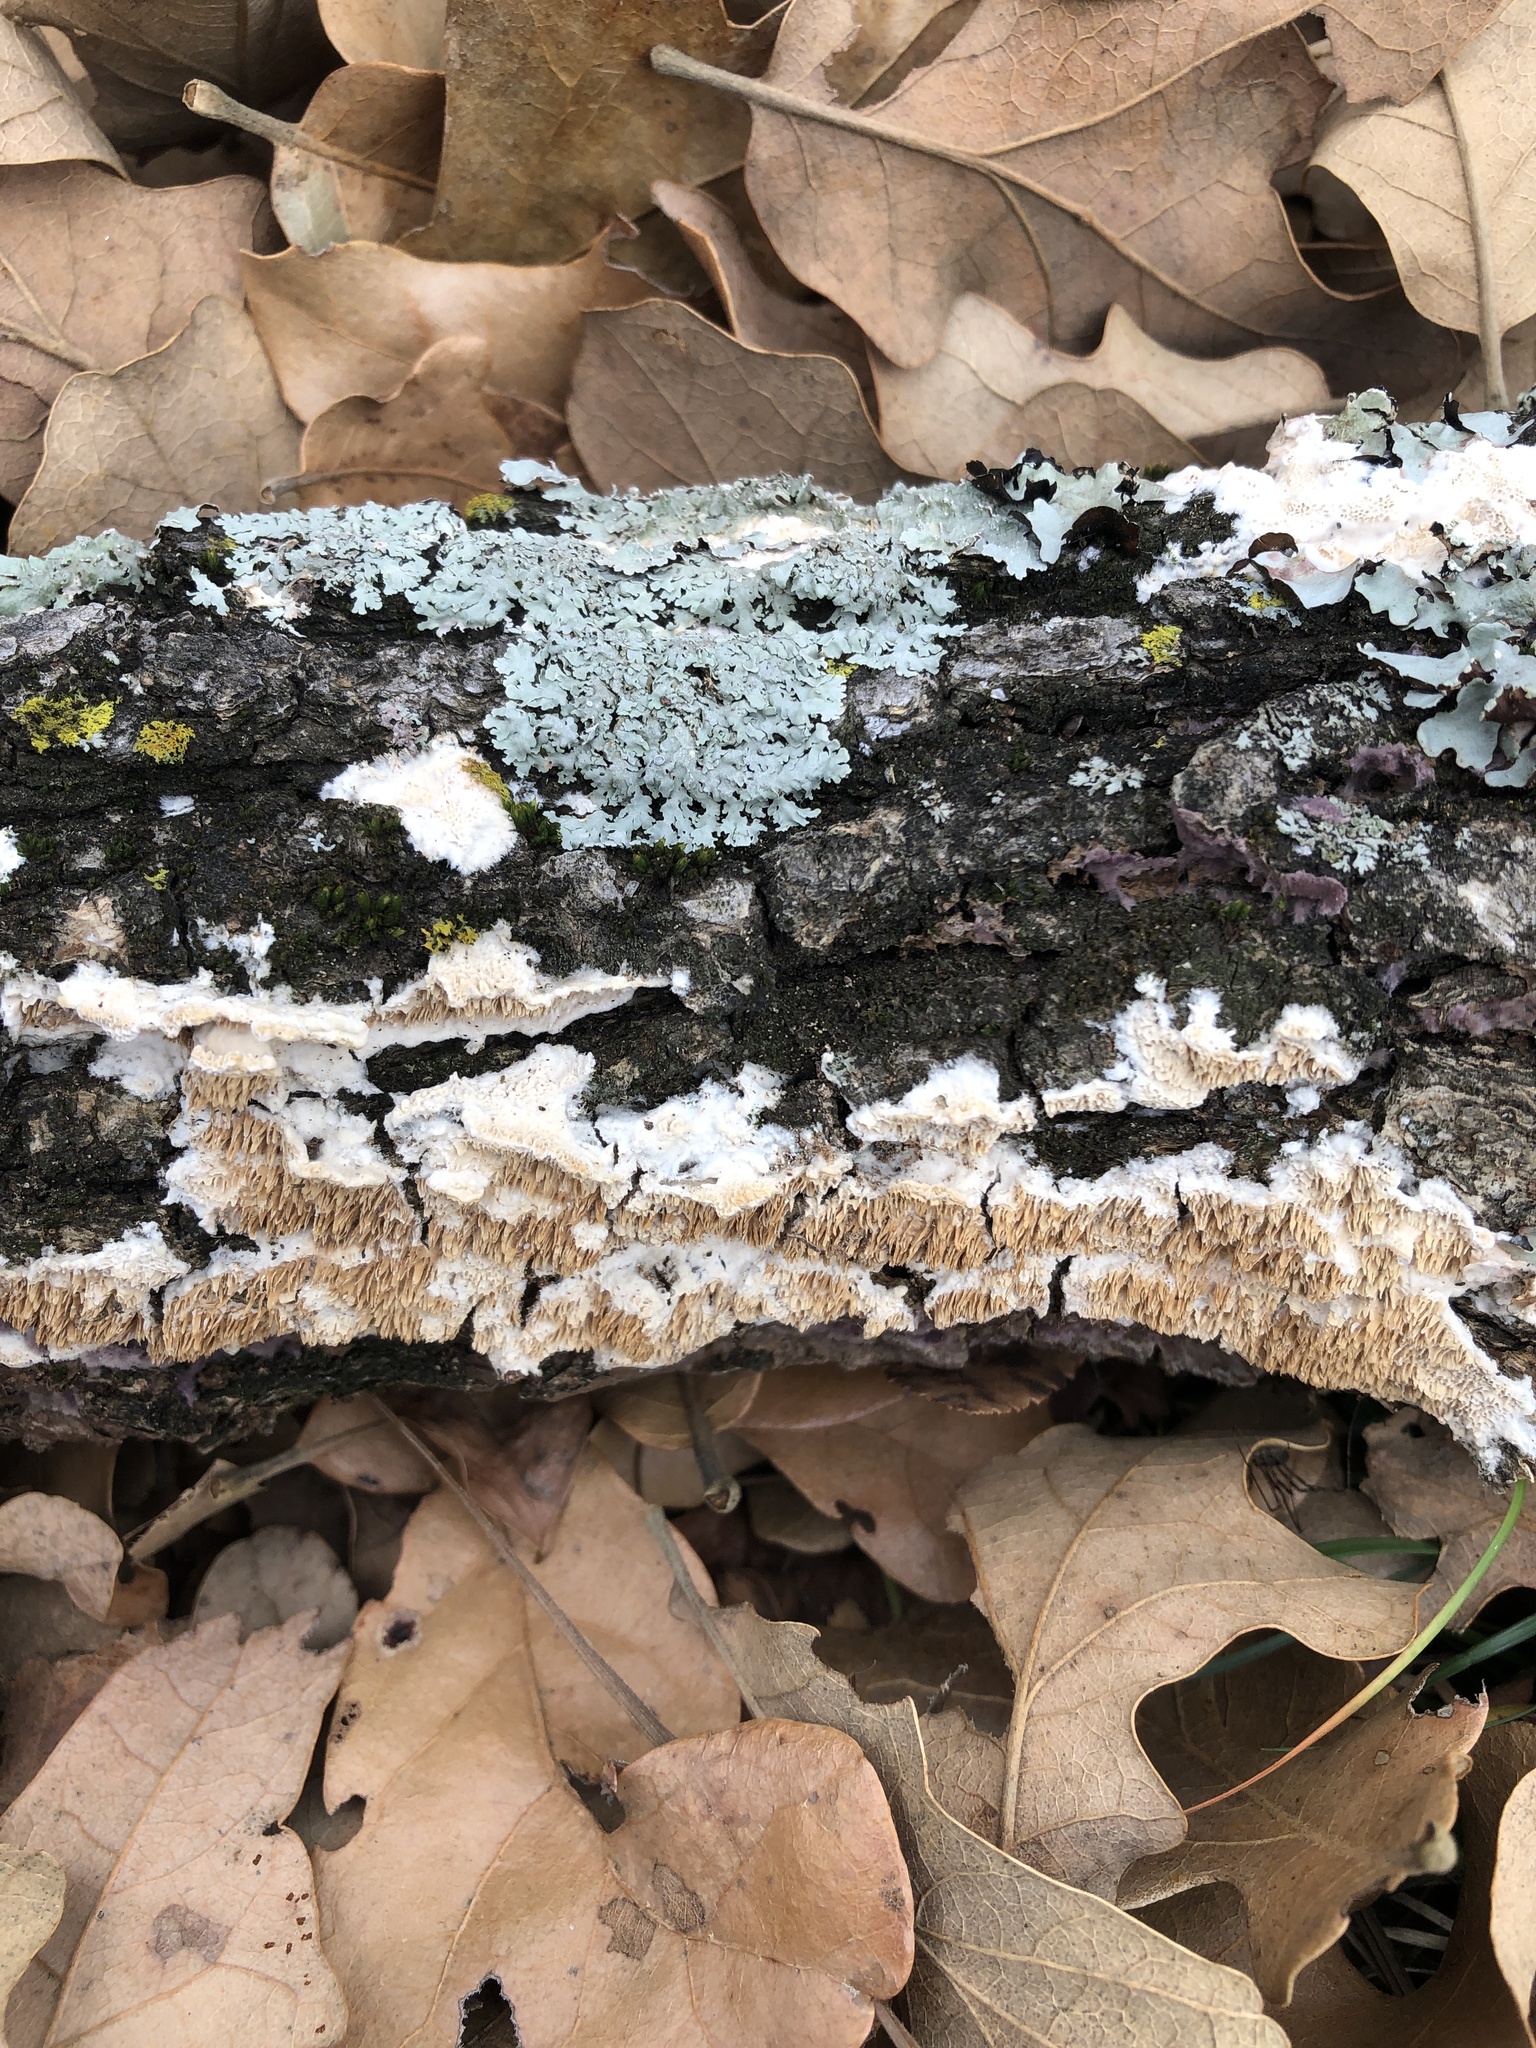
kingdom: Fungi
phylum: Basidiomycota
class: Agaricomycetes
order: Polyporales
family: Irpicaceae
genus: Irpex
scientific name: Irpex lacteus
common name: Milk-white toothed polypore
